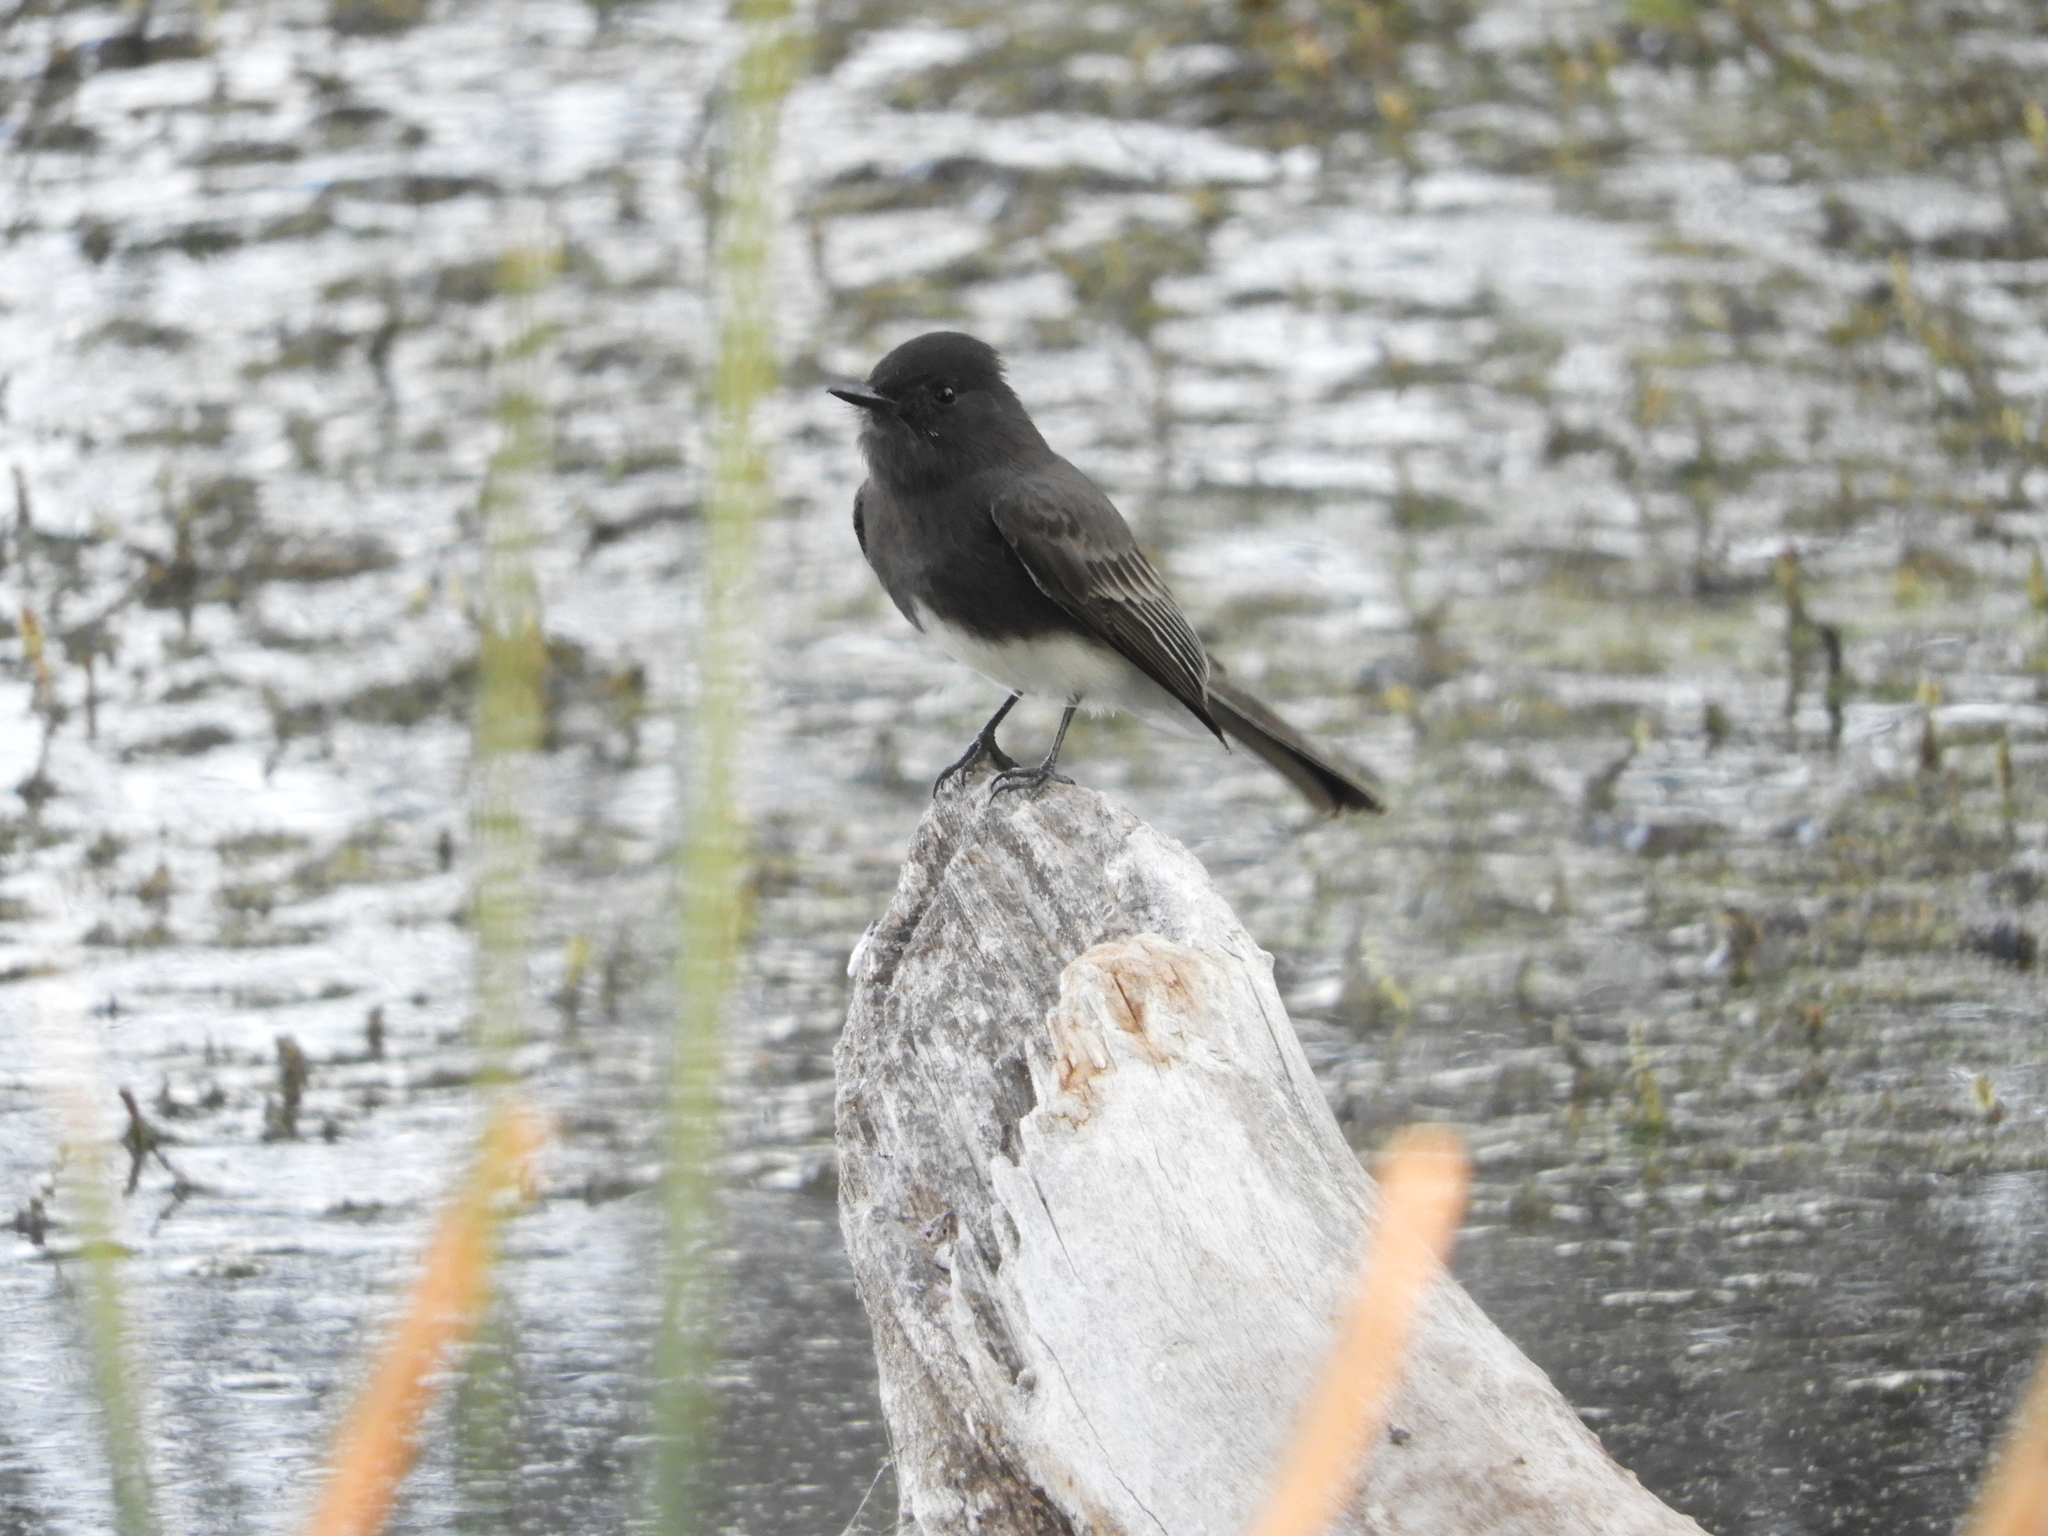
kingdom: Animalia
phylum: Chordata
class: Aves
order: Passeriformes
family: Tyrannidae
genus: Sayornis
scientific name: Sayornis nigricans
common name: Black phoebe
